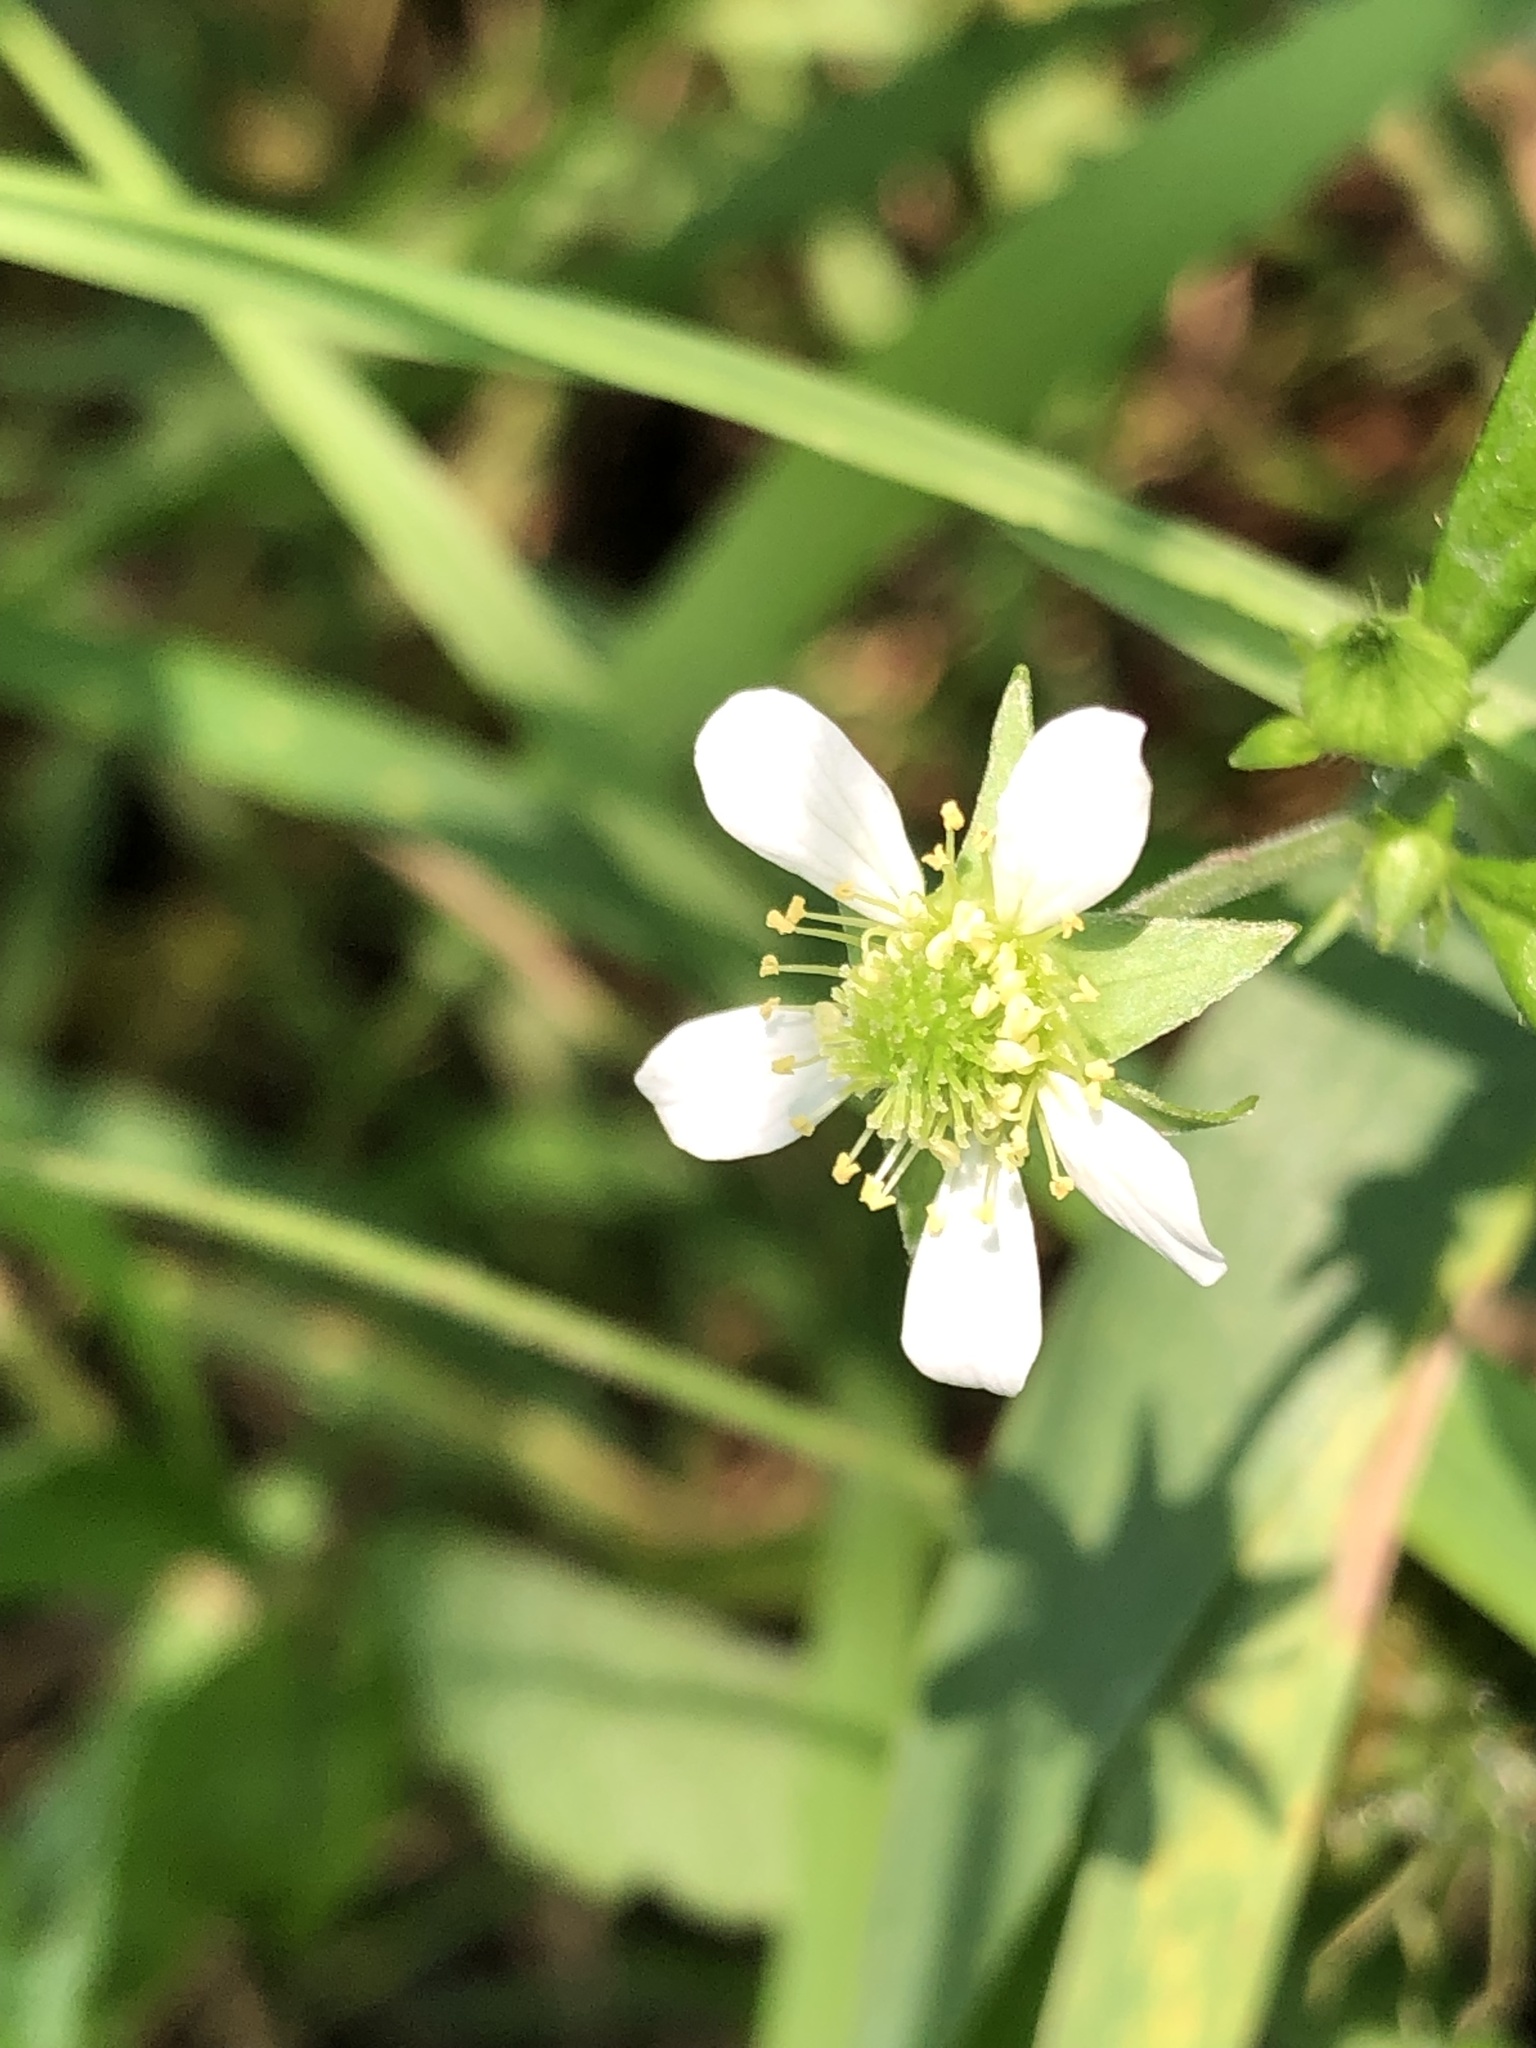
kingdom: Plantae
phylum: Tracheophyta
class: Magnoliopsida
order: Rosales
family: Rosaceae
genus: Geum
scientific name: Geum canadense
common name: White avens
